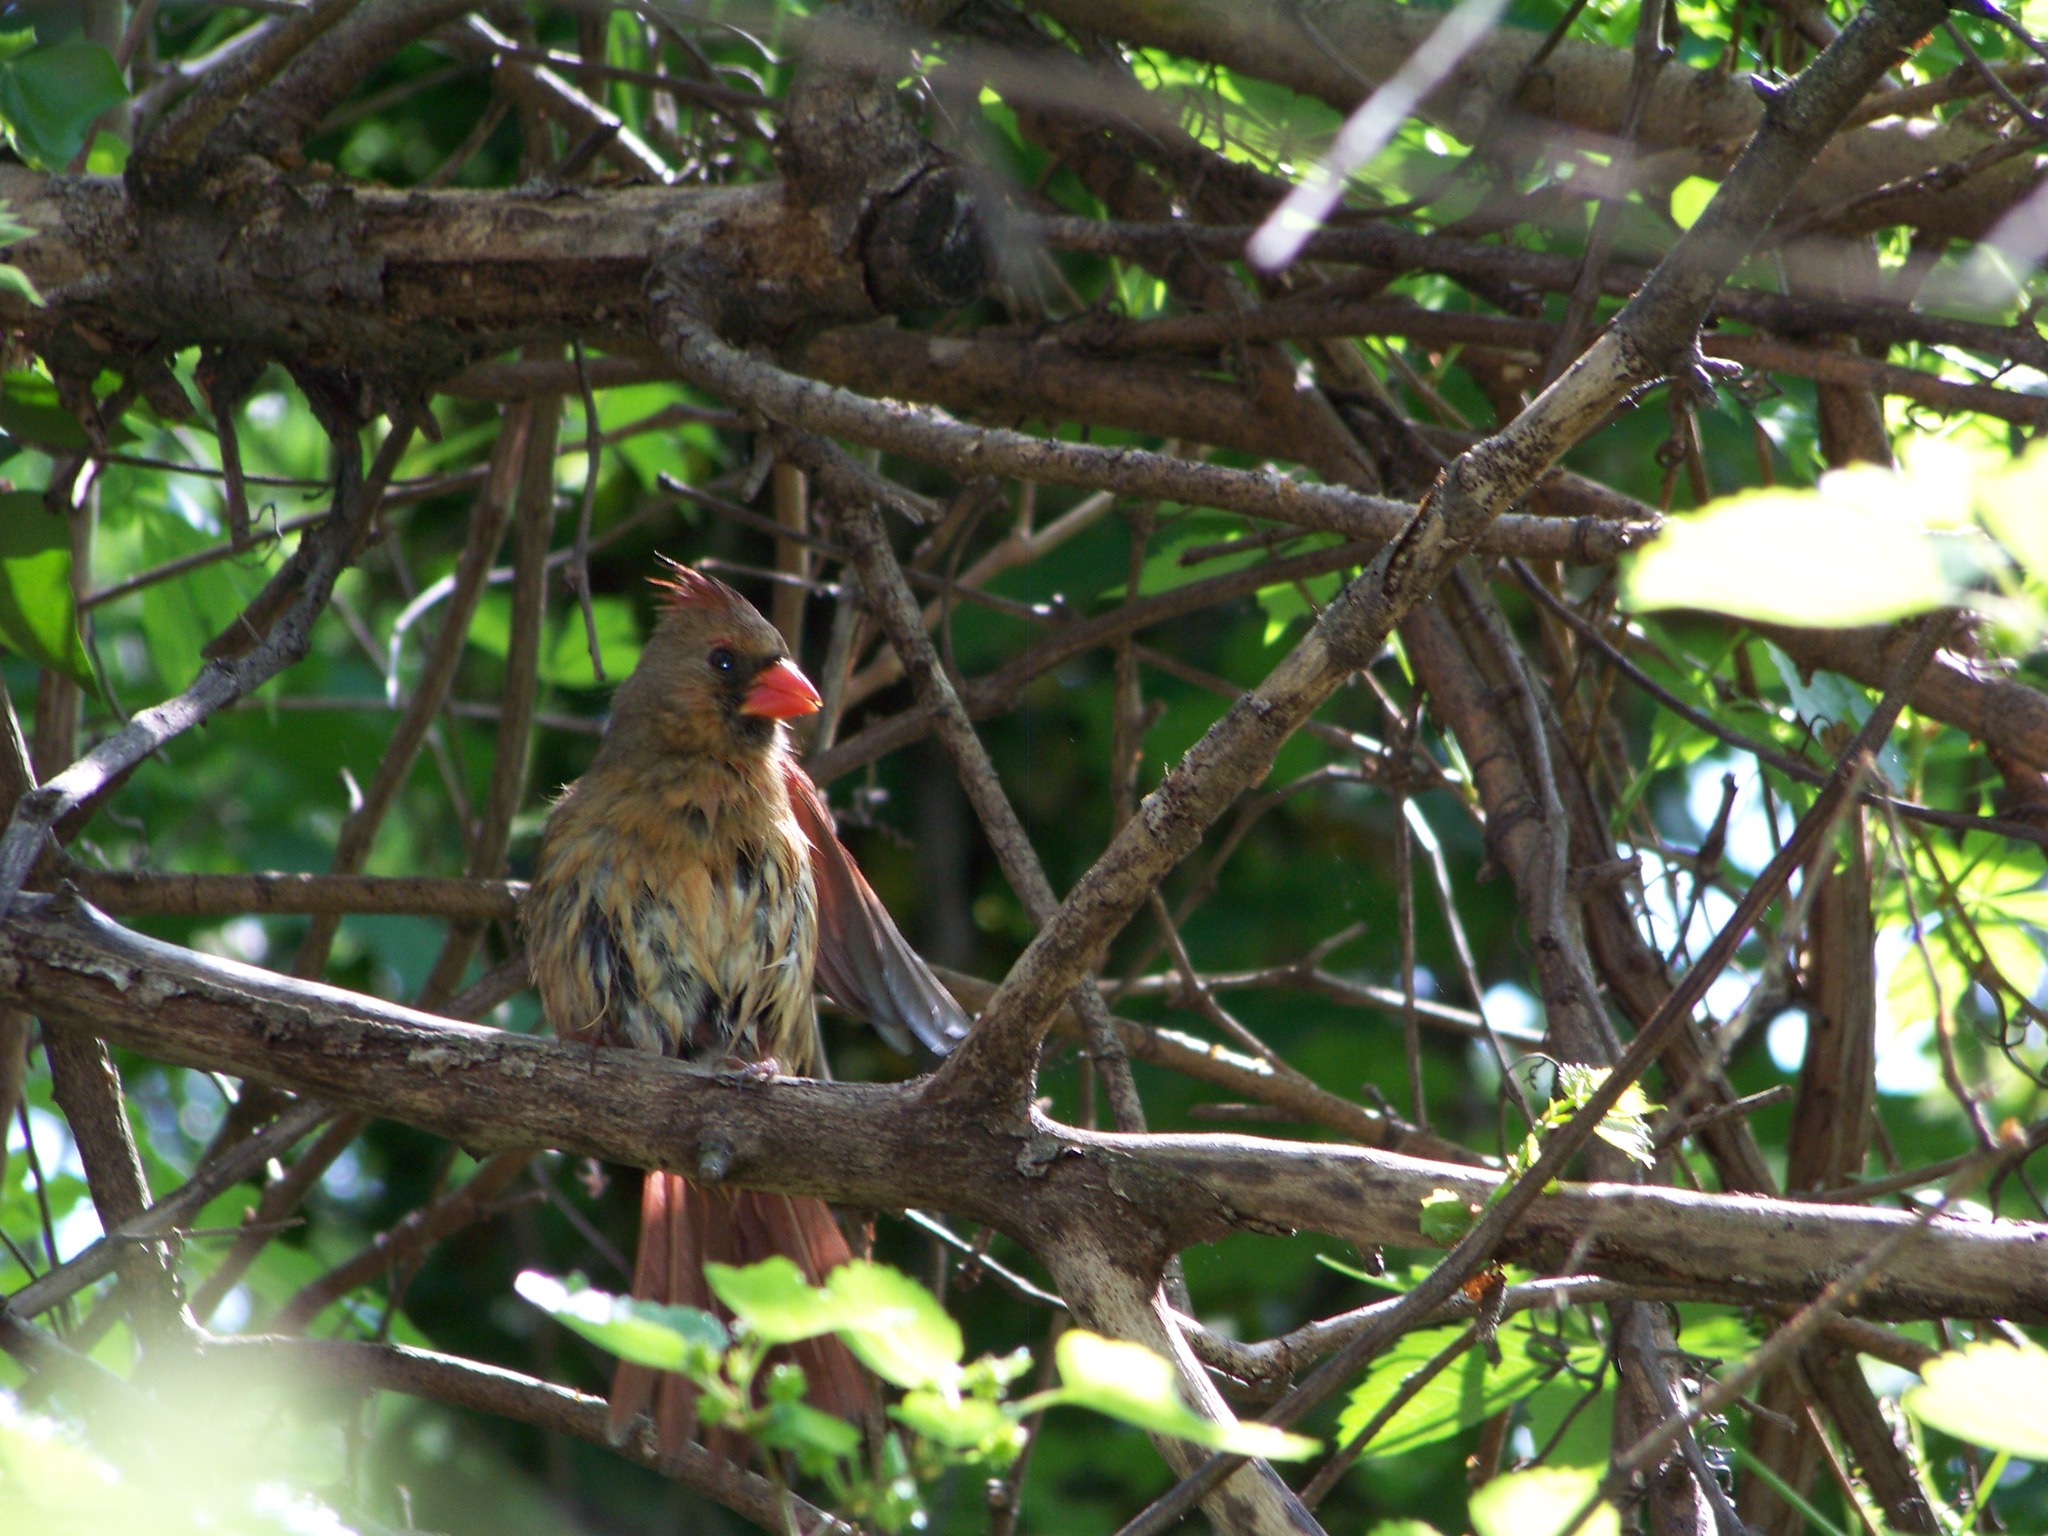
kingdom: Animalia
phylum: Chordata
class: Aves
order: Passeriformes
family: Cardinalidae
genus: Cardinalis
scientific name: Cardinalis cardinalis
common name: Northern cardinal
